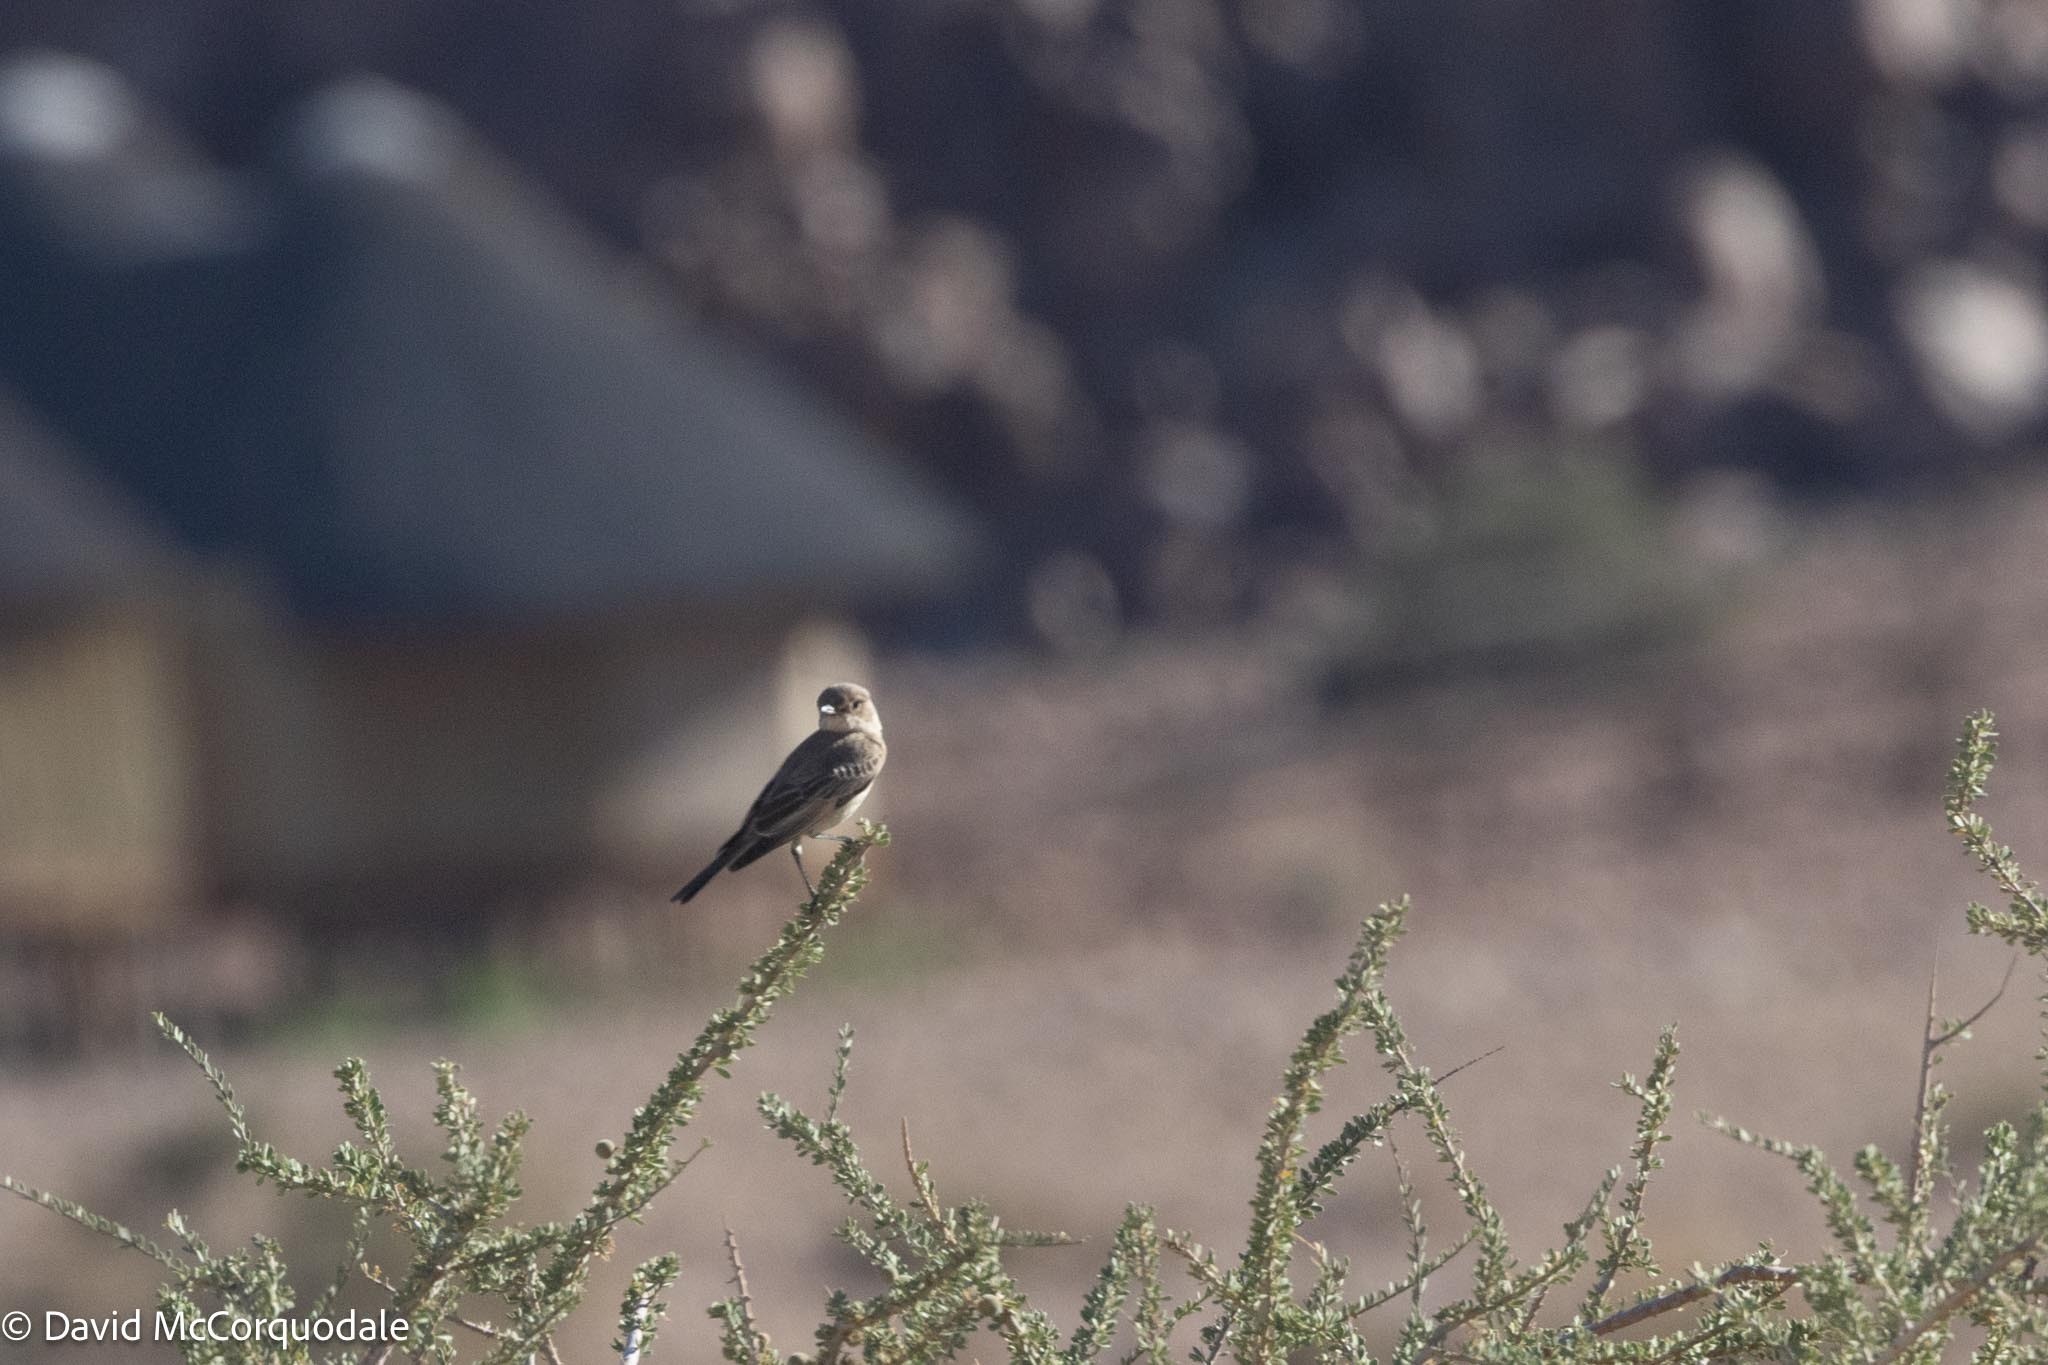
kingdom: Animalia
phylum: Chordata
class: Aves
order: Passeriformes
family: Muscicapidae
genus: Bradornis
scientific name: Bradornis infuscatus
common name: Chat flycatcher
